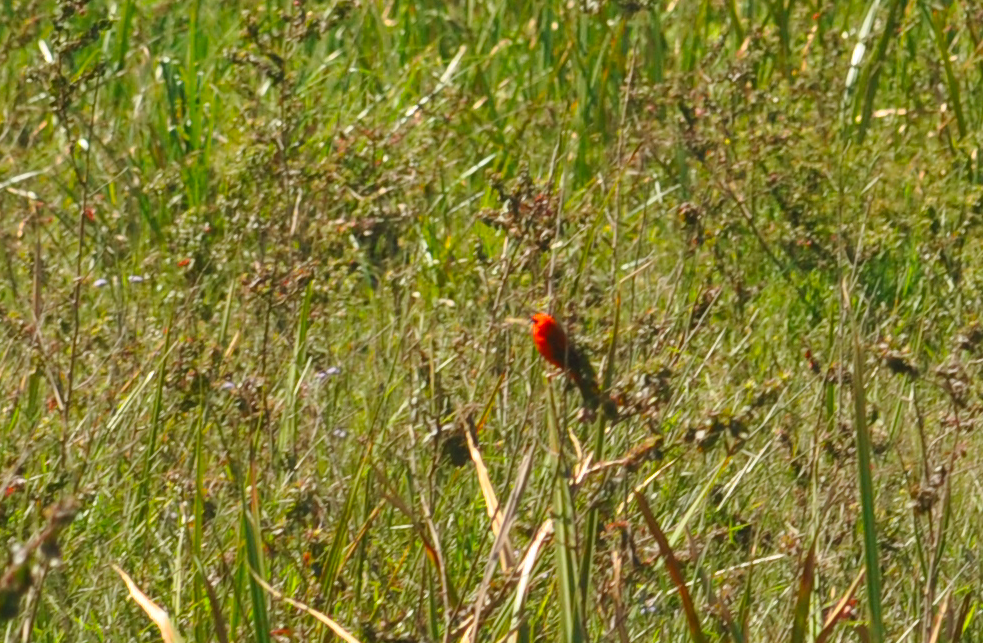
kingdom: Animalia
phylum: Chordata
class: Aves
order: Passeriformes
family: Ploceidae
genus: Foudia
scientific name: Foudia madagascariensis
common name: Red fody
